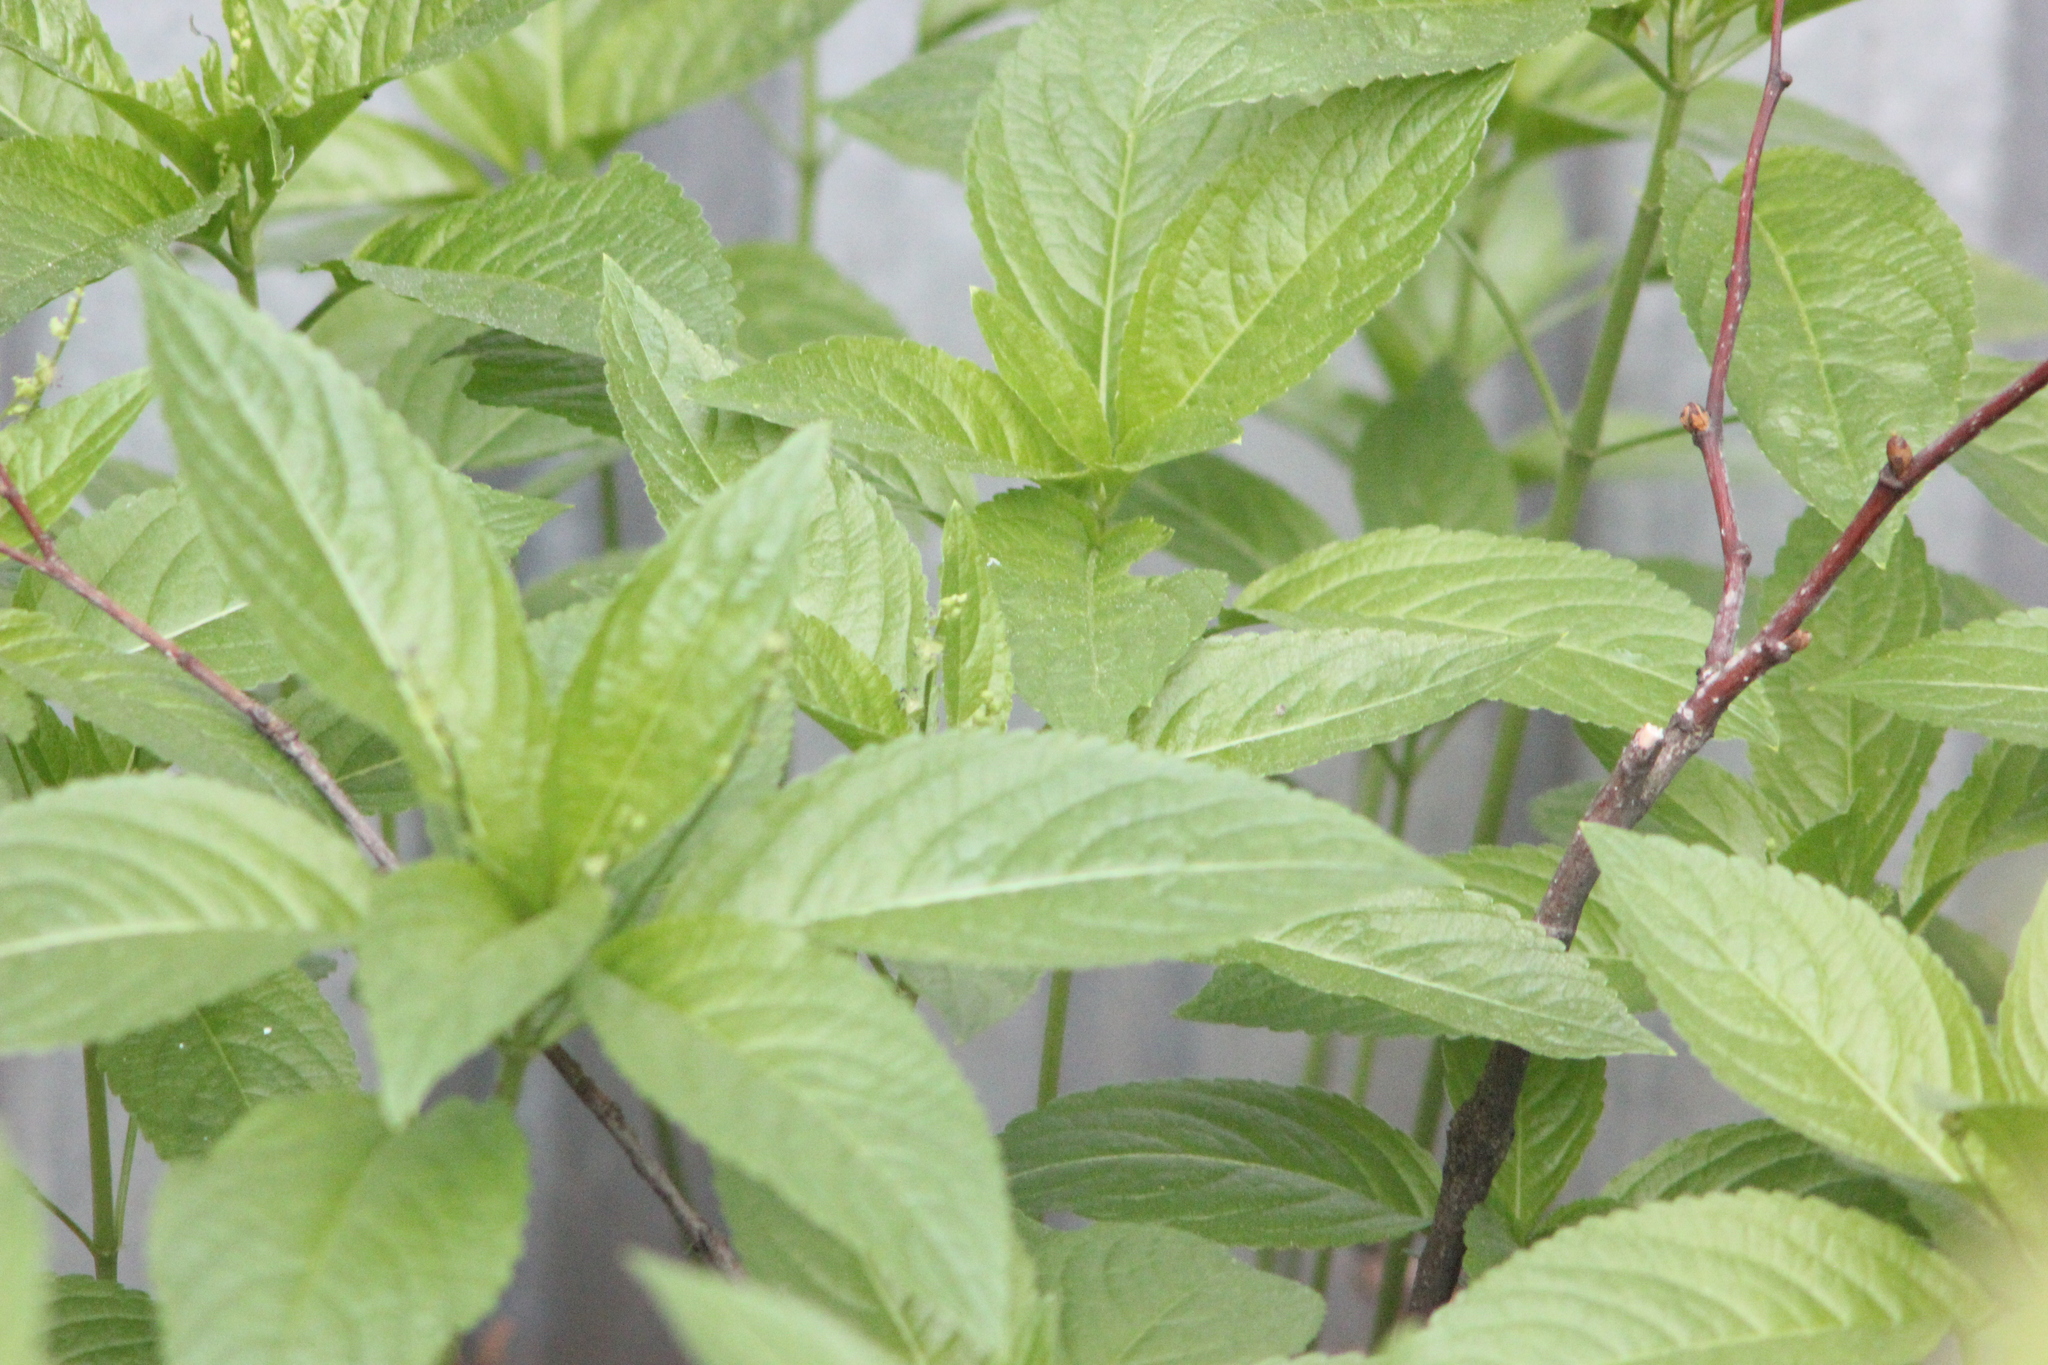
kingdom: Plantae
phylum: Tracheophyta
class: Magnoliopsida
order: Malpighiales
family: Euphorbiaceae
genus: Mercurialis
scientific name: Mercurialis perennis
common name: Dog mercury
